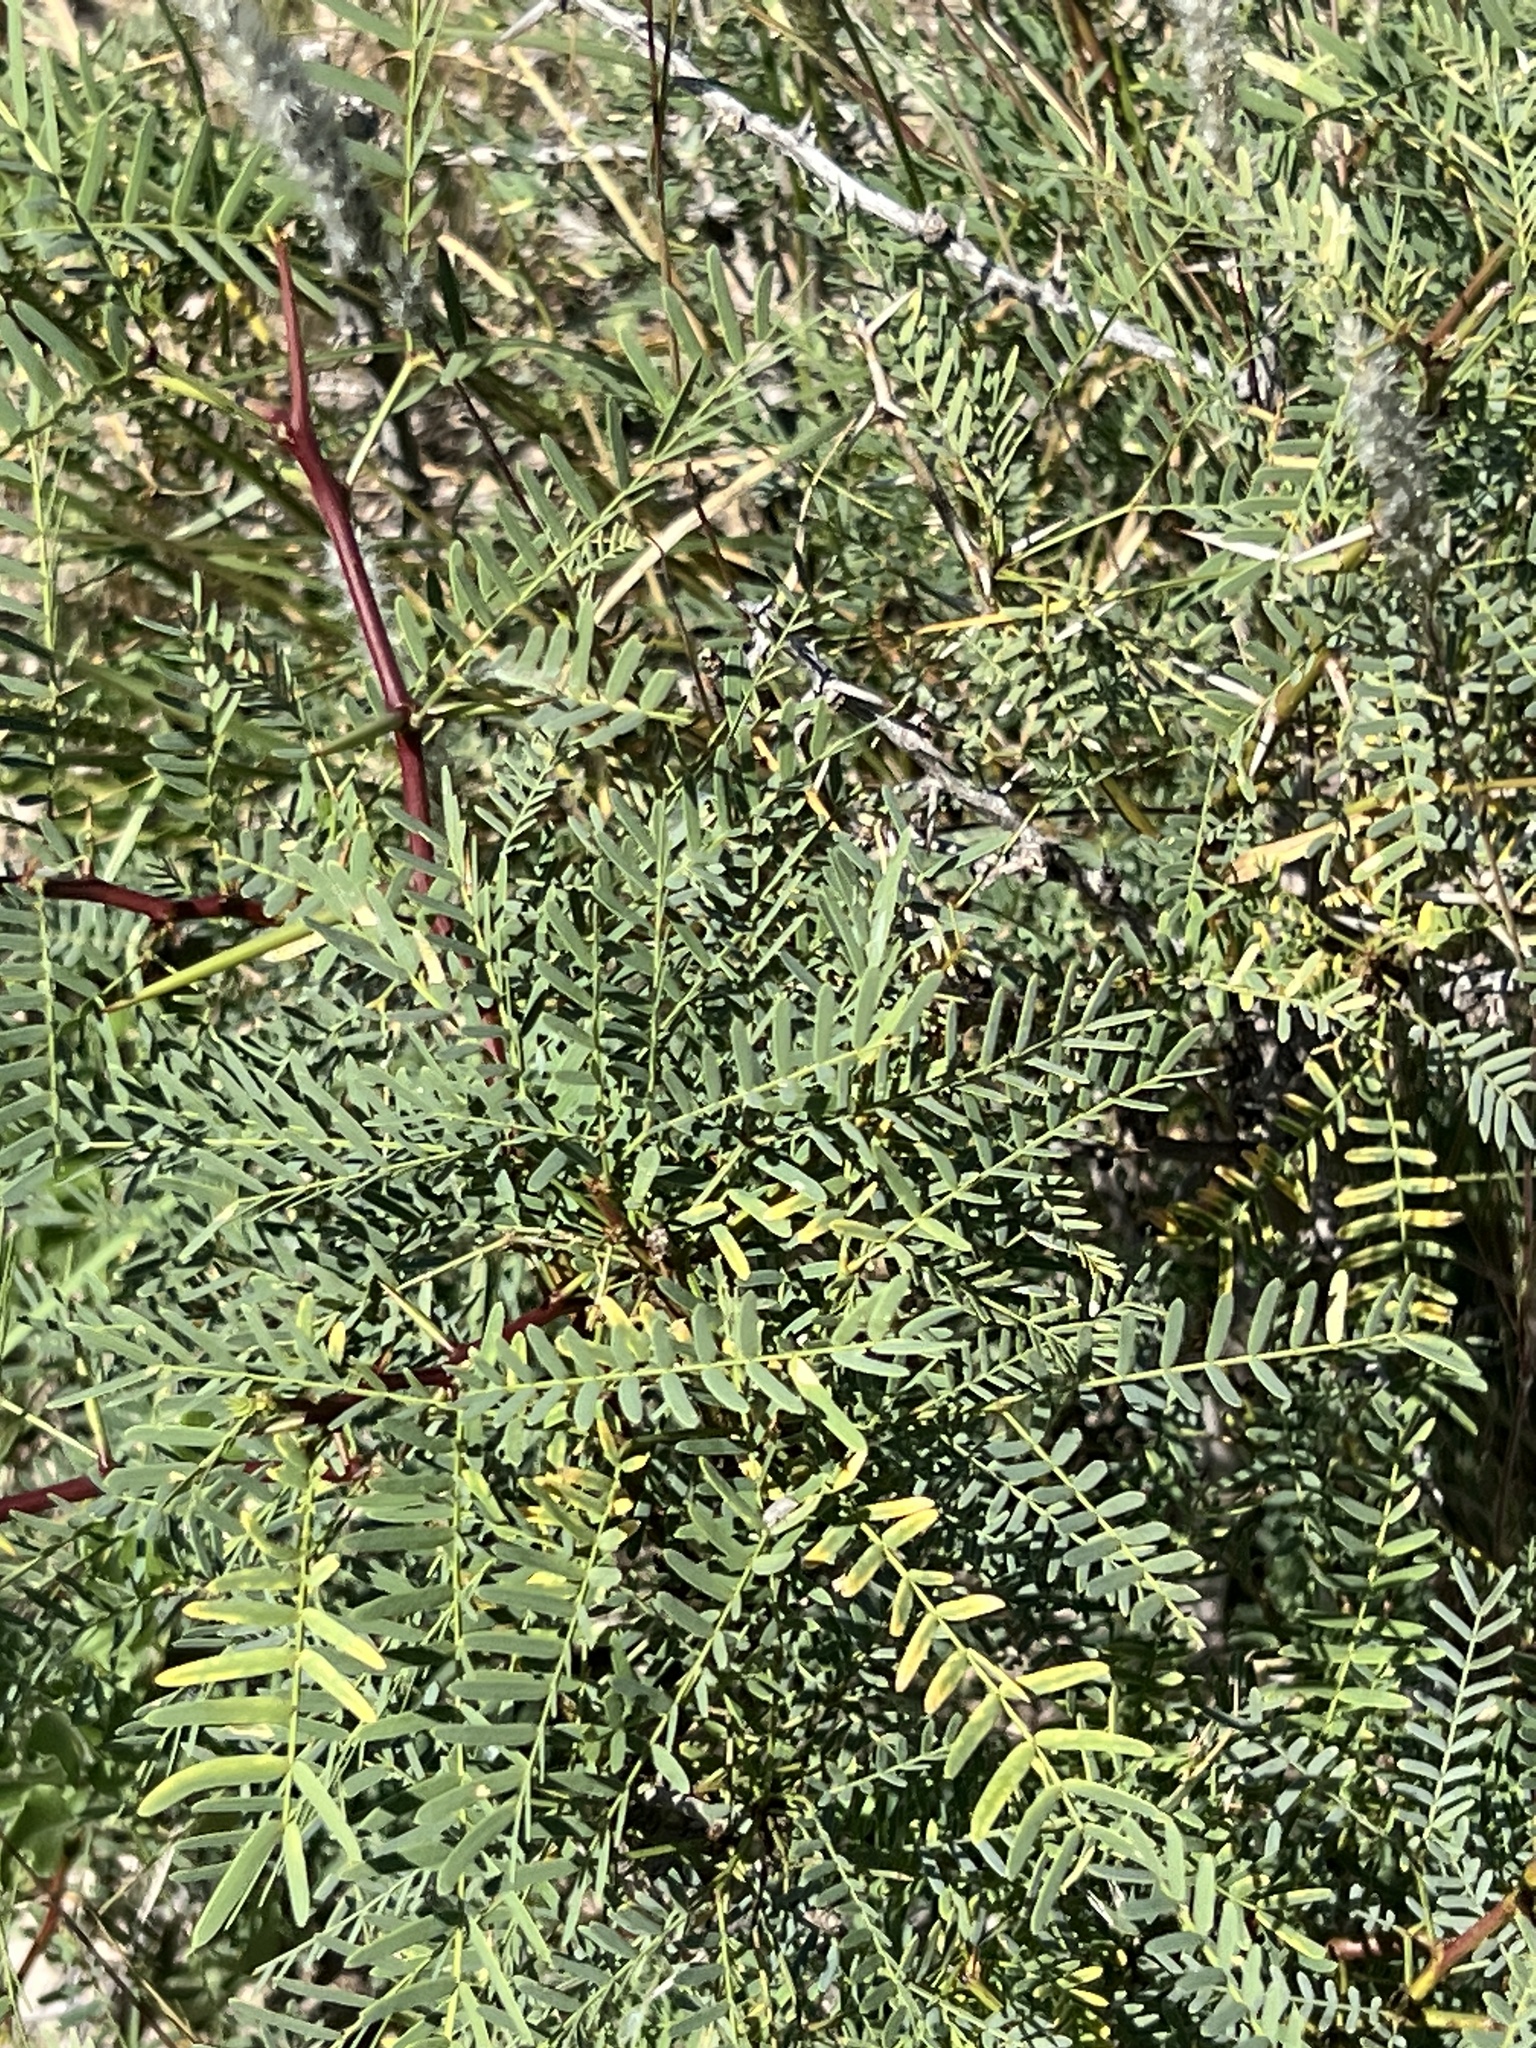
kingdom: Plantae
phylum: Tracheophyta
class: Magnoliopsida
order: Fabales
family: Fabaceae
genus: Prosopis
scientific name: Prosopis pubescens
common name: Screw-bean
